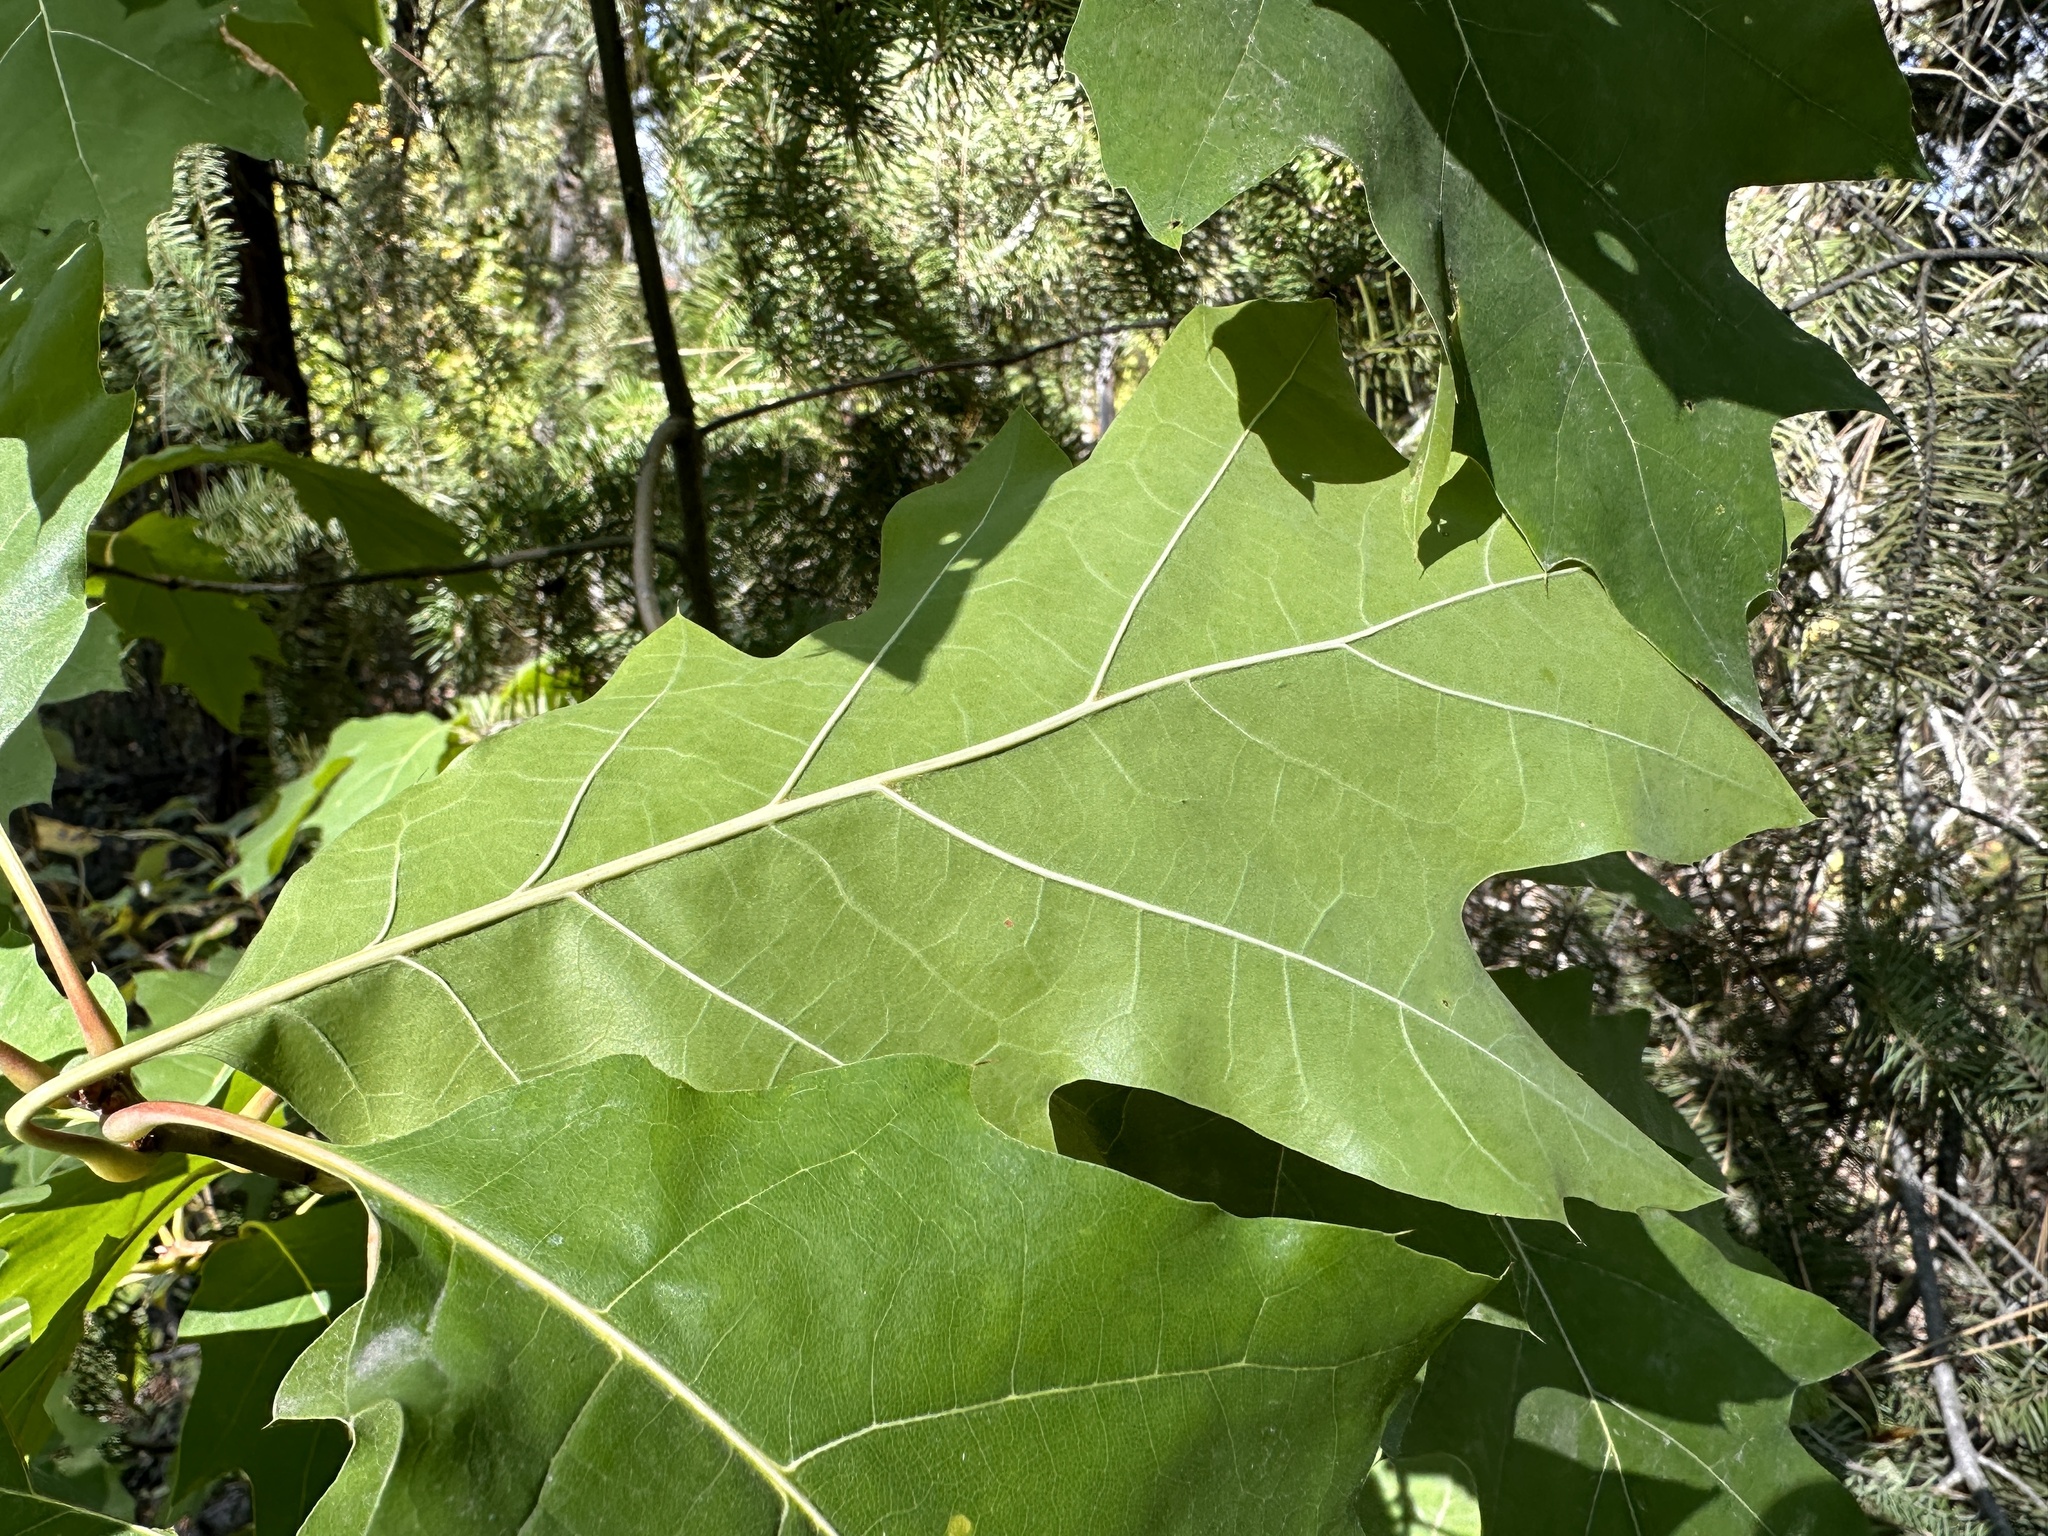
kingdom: Plantae
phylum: Tracheophyta
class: Magnoliopsida
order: Fagales
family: Fagaceae
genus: Quercus
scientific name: Quercus rubra
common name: Red oak
